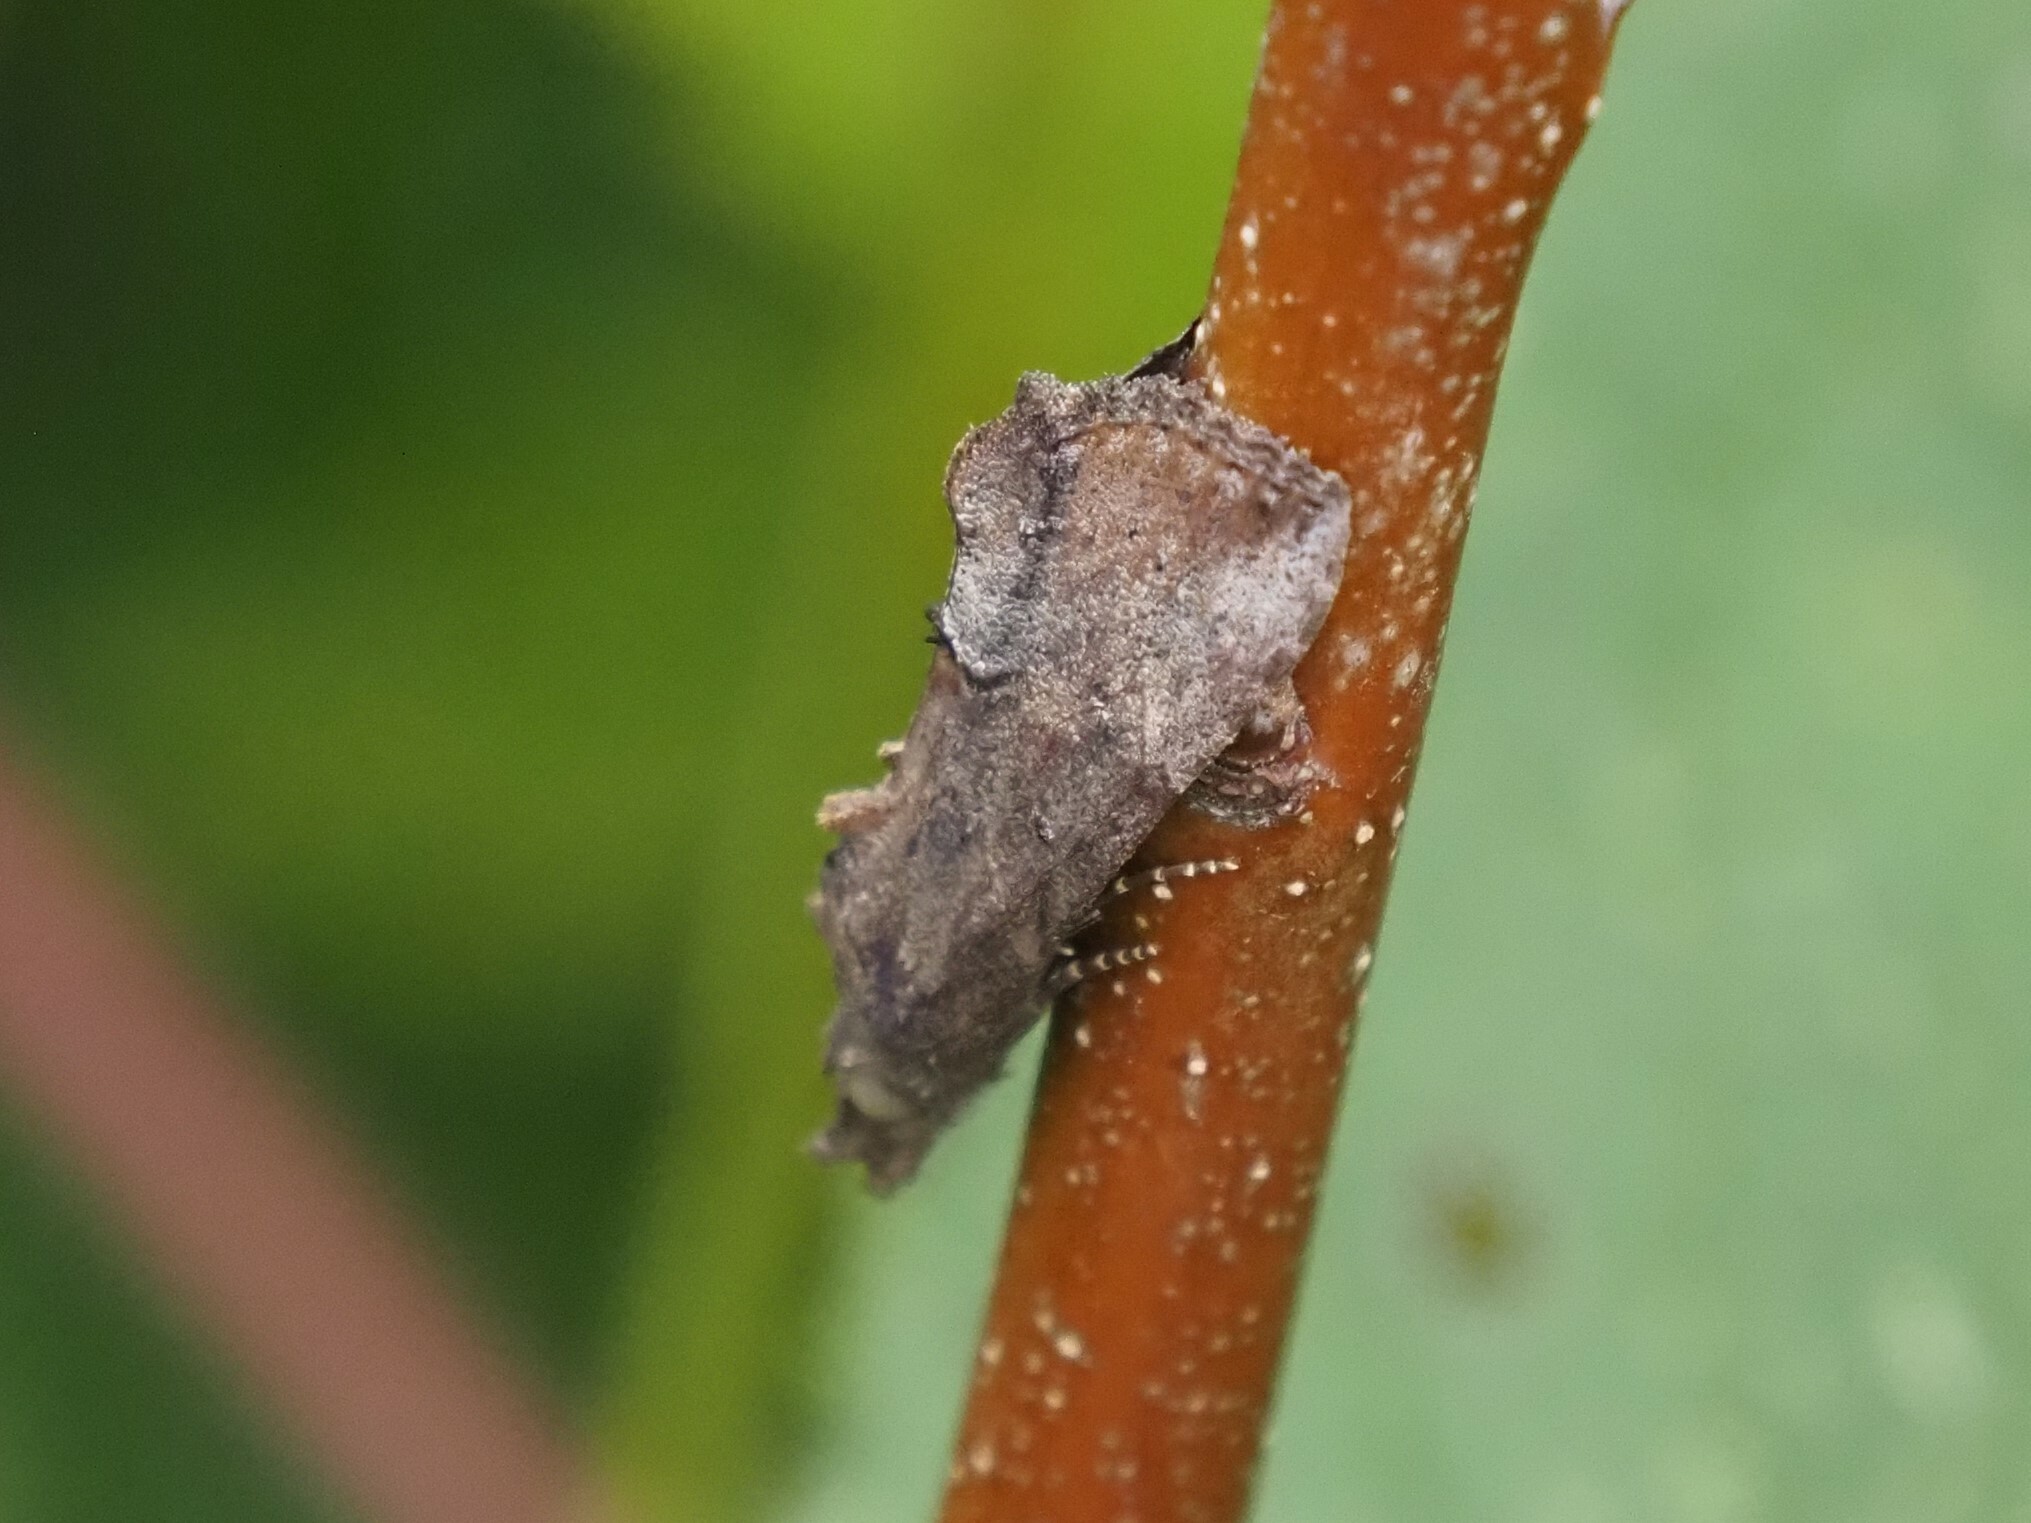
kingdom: Animalia
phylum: Arthropoda
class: Insecta
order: Lepidoptera
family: Erebidae
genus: Hypena
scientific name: Hypena scabra
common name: Green cloverworm
